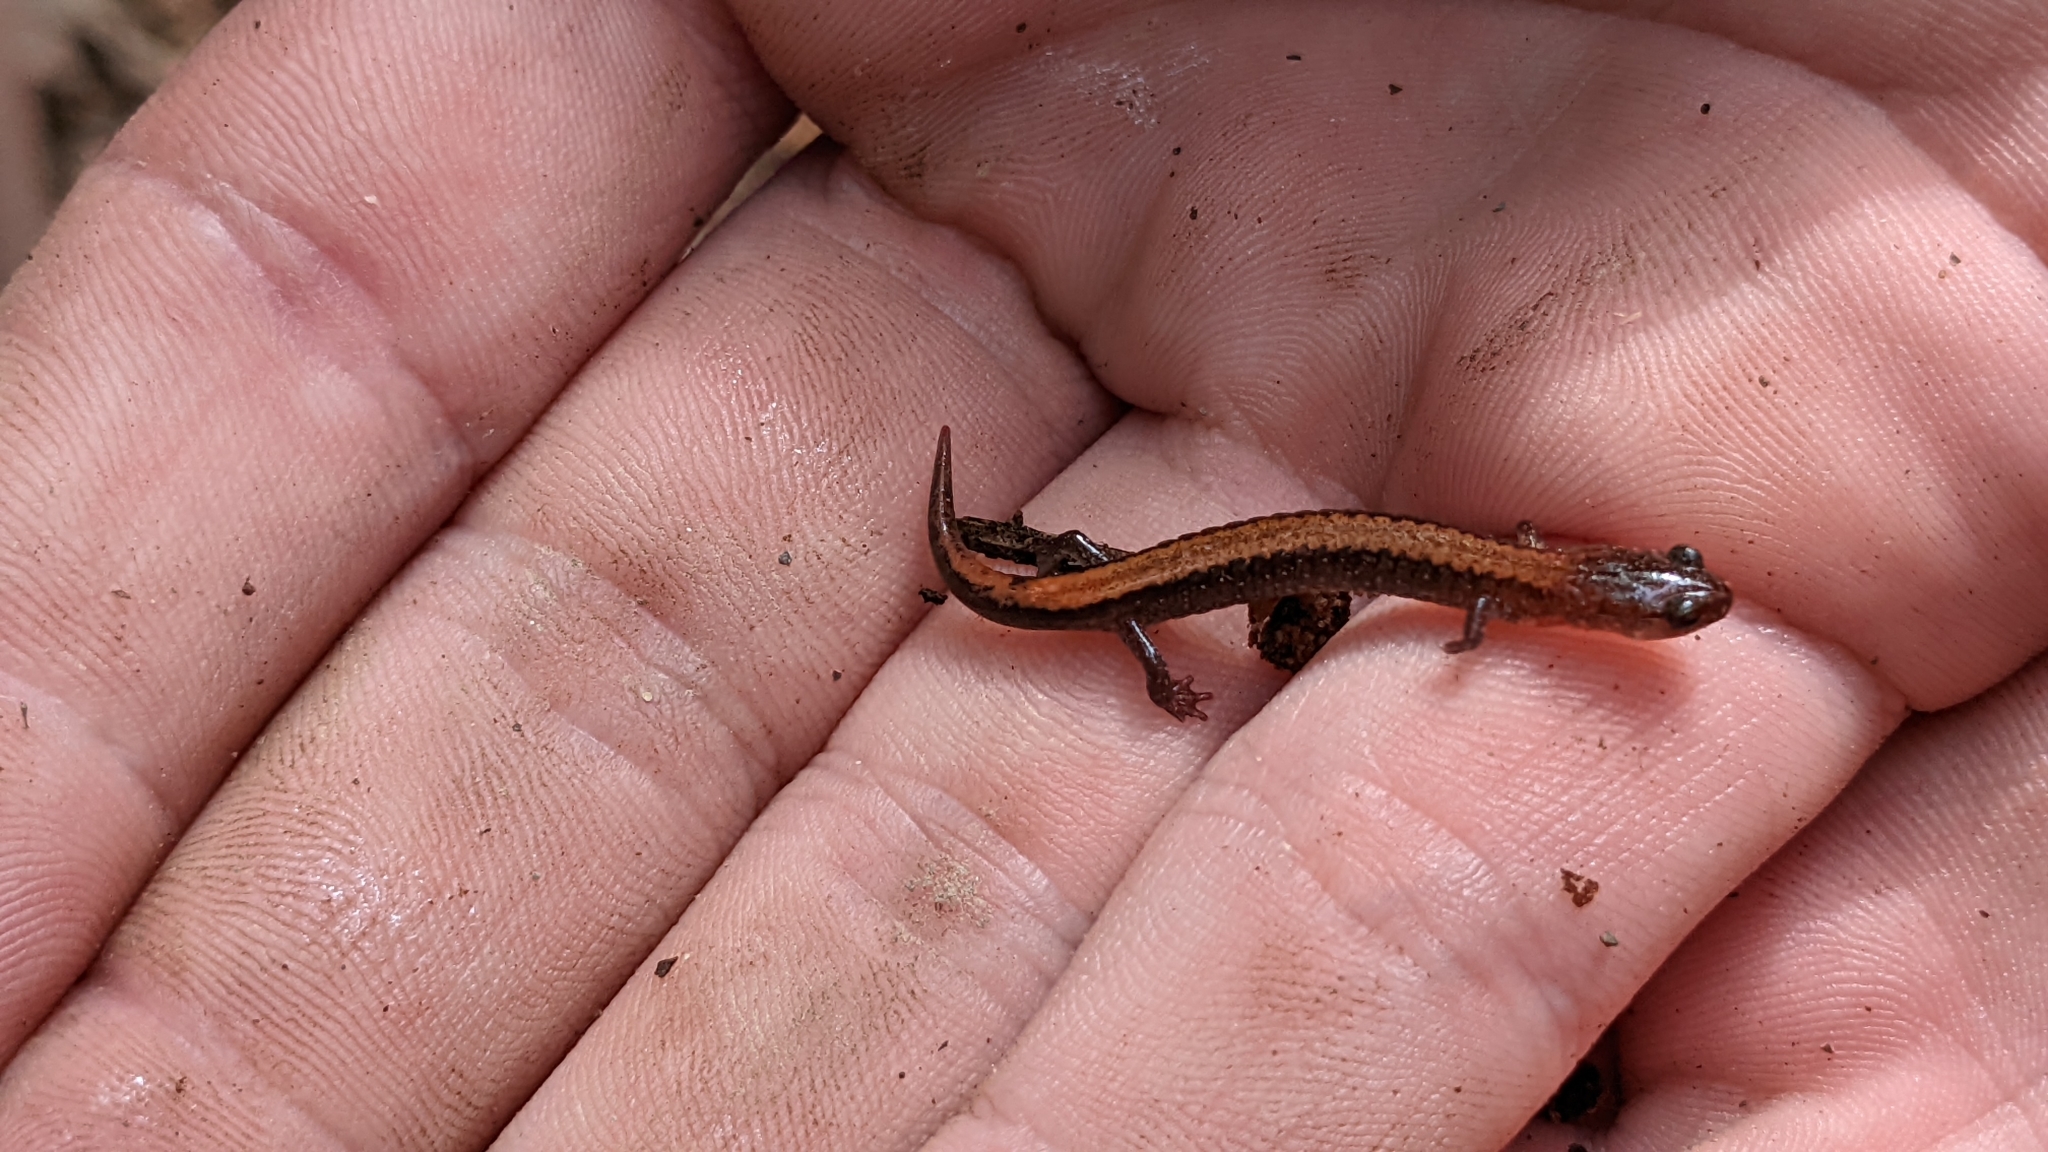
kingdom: Animalia
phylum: Chordata
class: Amphibia
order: Caudata
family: Plethodontidae
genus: Plethodon
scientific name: Plethodon serratus
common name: Southern red-backed salamander
